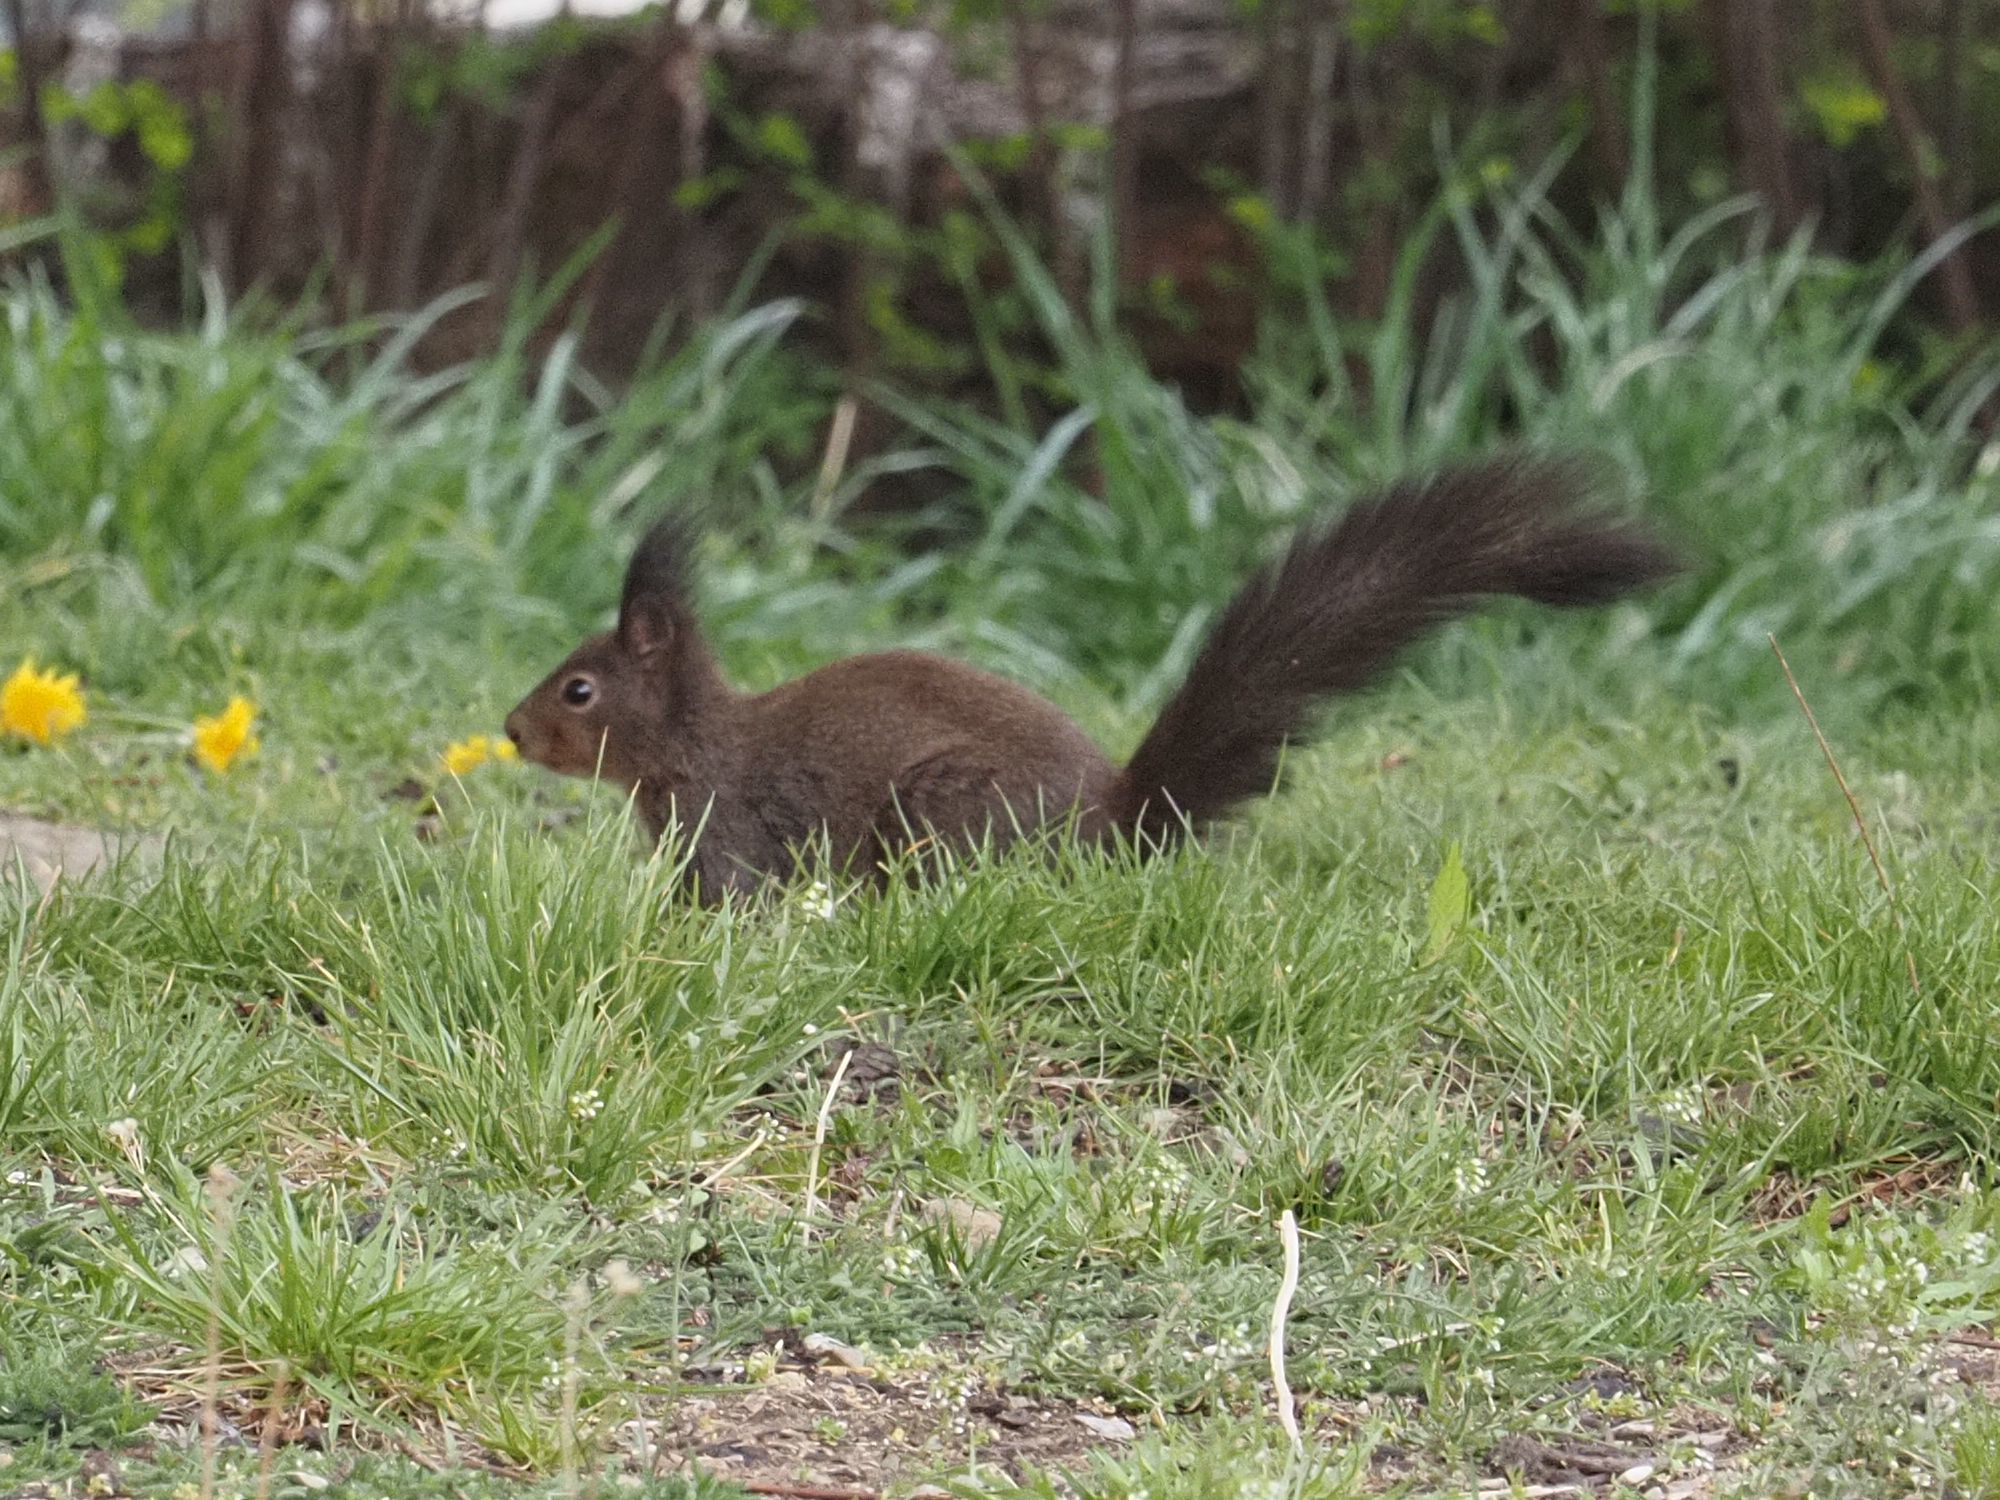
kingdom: Animalia
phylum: Chordata
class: Mammalia
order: Rodentia
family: Sciuridae
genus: Sciurus
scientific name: Sciurus vulgaris
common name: Eurasian red squirrel
